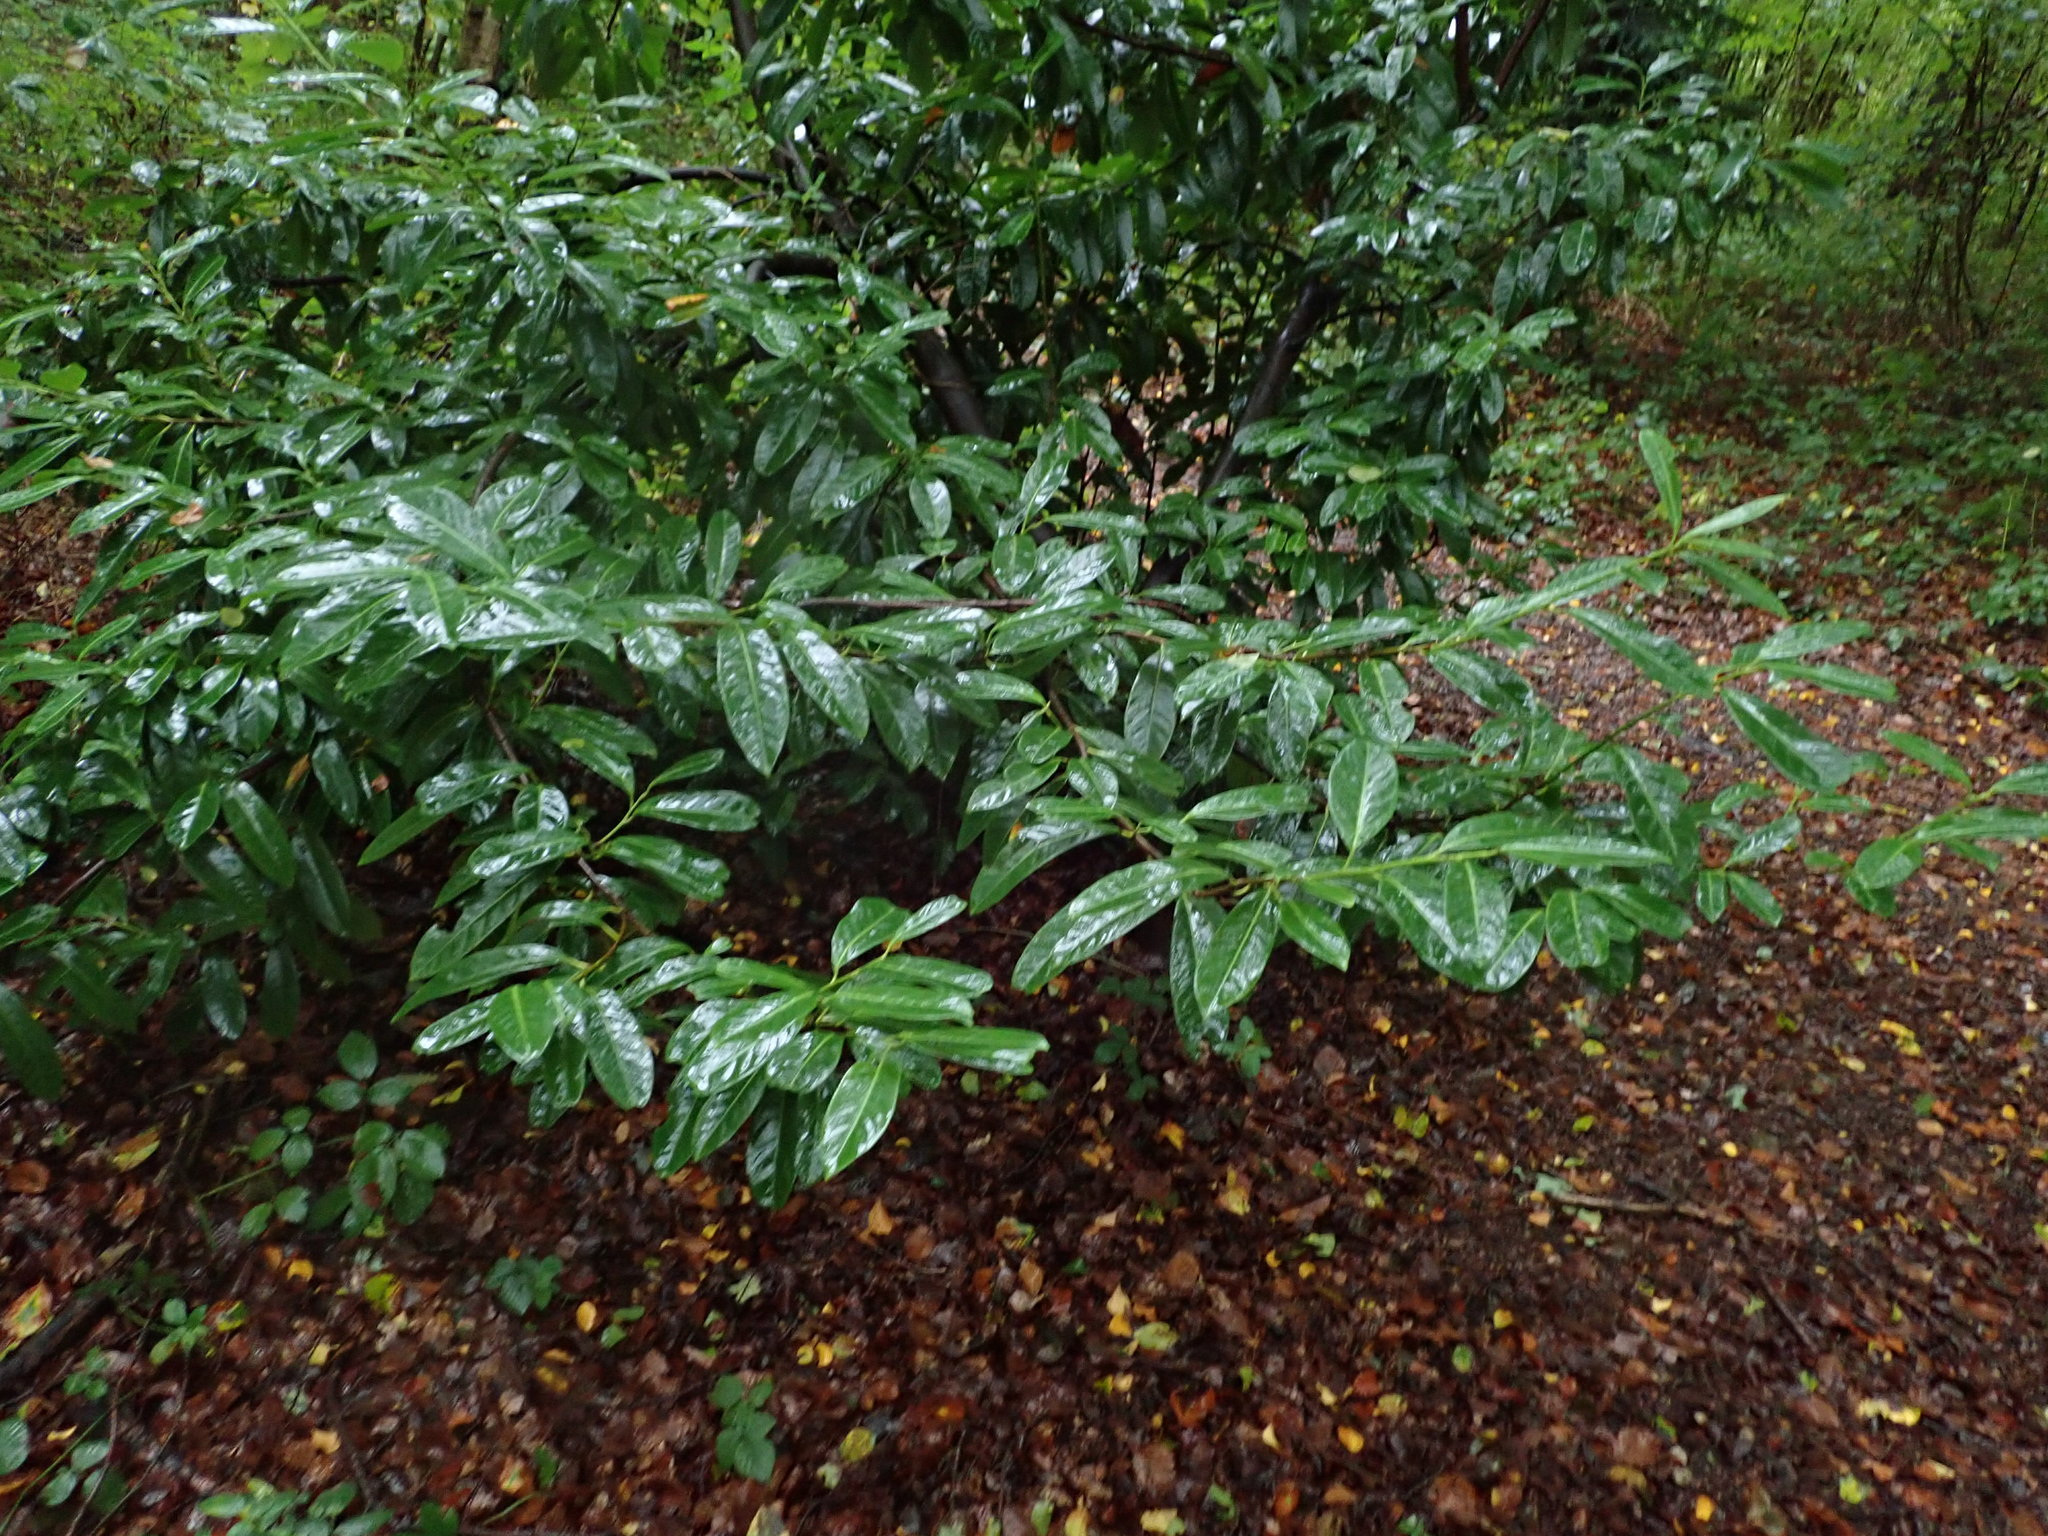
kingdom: Plantae
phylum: Tracheophyta
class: Magnoliopsida
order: Rosales
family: Rosaceae
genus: Prunus
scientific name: Prunus laurocerasus
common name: Cherry laurel
